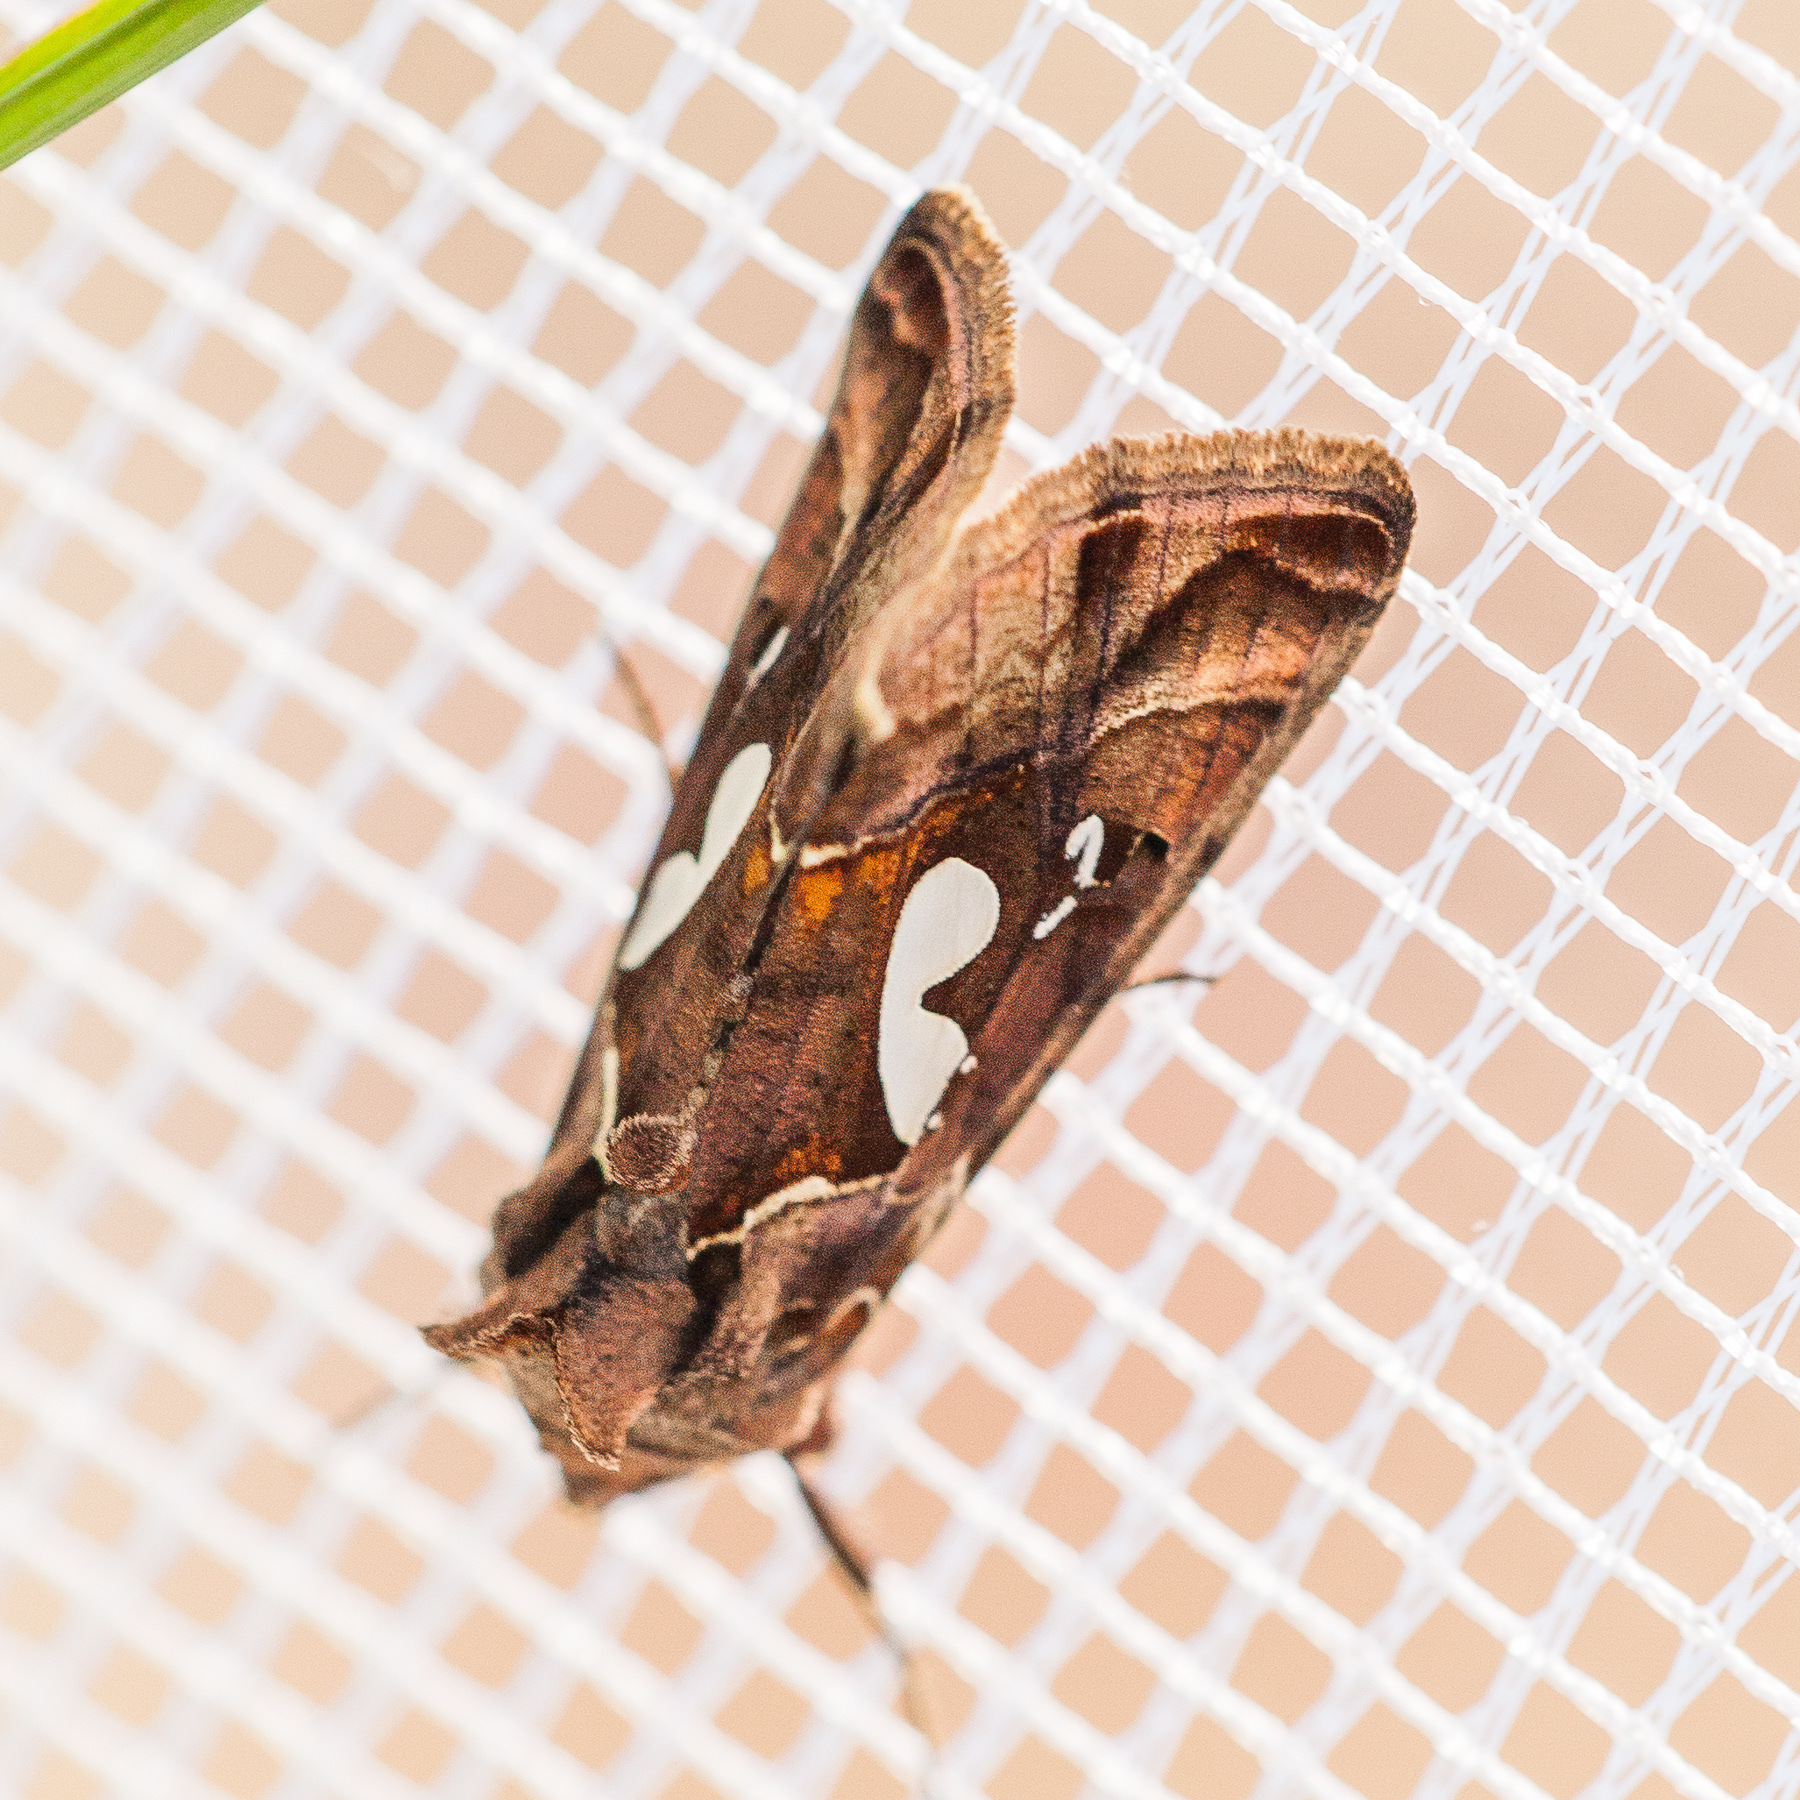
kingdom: Animalia
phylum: Arthropoda
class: Insecta
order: Lepidoptera
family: Noctuidae
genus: Megalographa
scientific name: Megalographa biloba
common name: Cutworm
